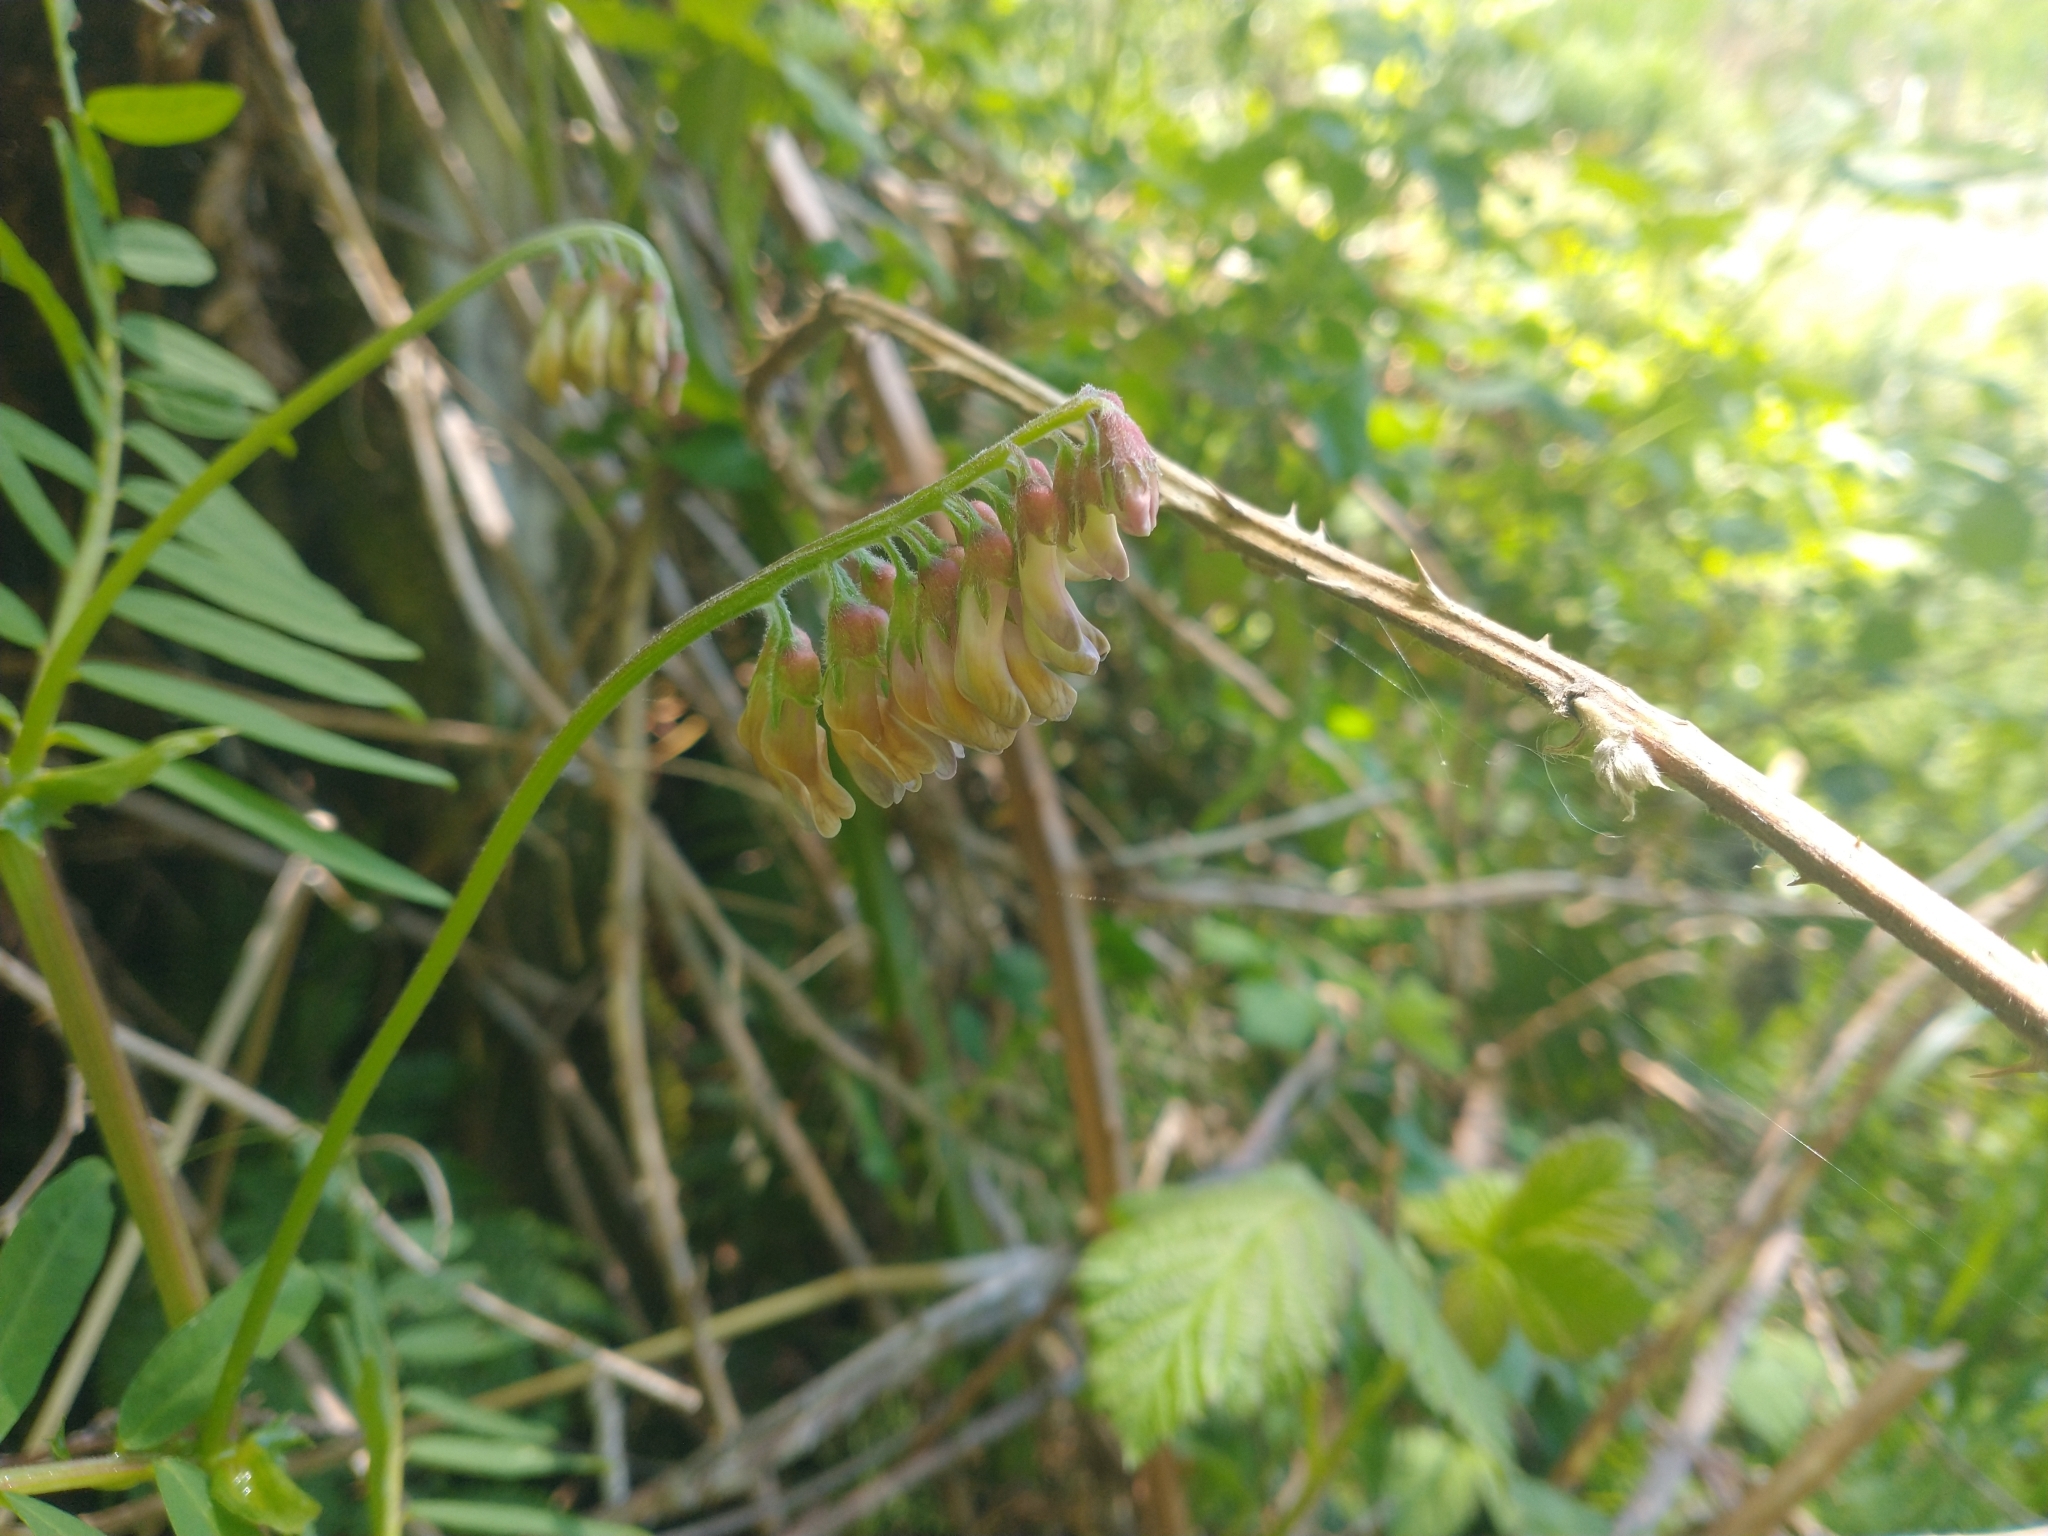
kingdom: Plantae
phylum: Tracheophyta
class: Magnoliopsida
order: Fabales
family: Fabaceae
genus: Vicia
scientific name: Vicia
